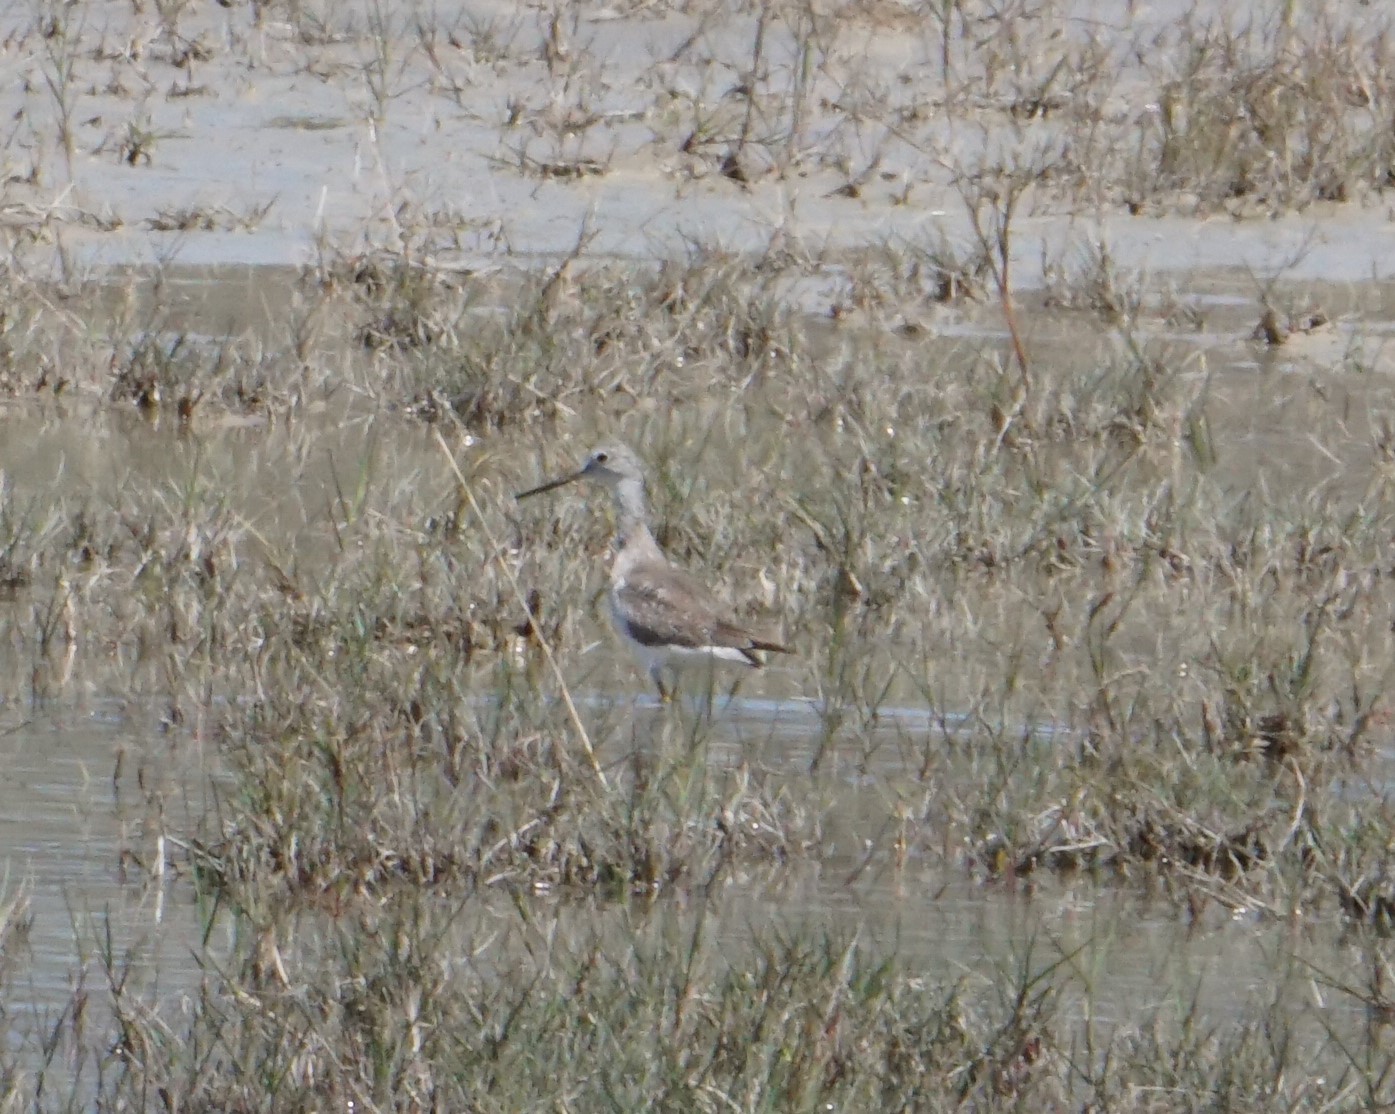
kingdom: Animalia
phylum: Chordata
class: Aves
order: Charadriiformes
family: Scolopacidae
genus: Tringa
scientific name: Tringa melanoleuca
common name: Greater yellowlegs
